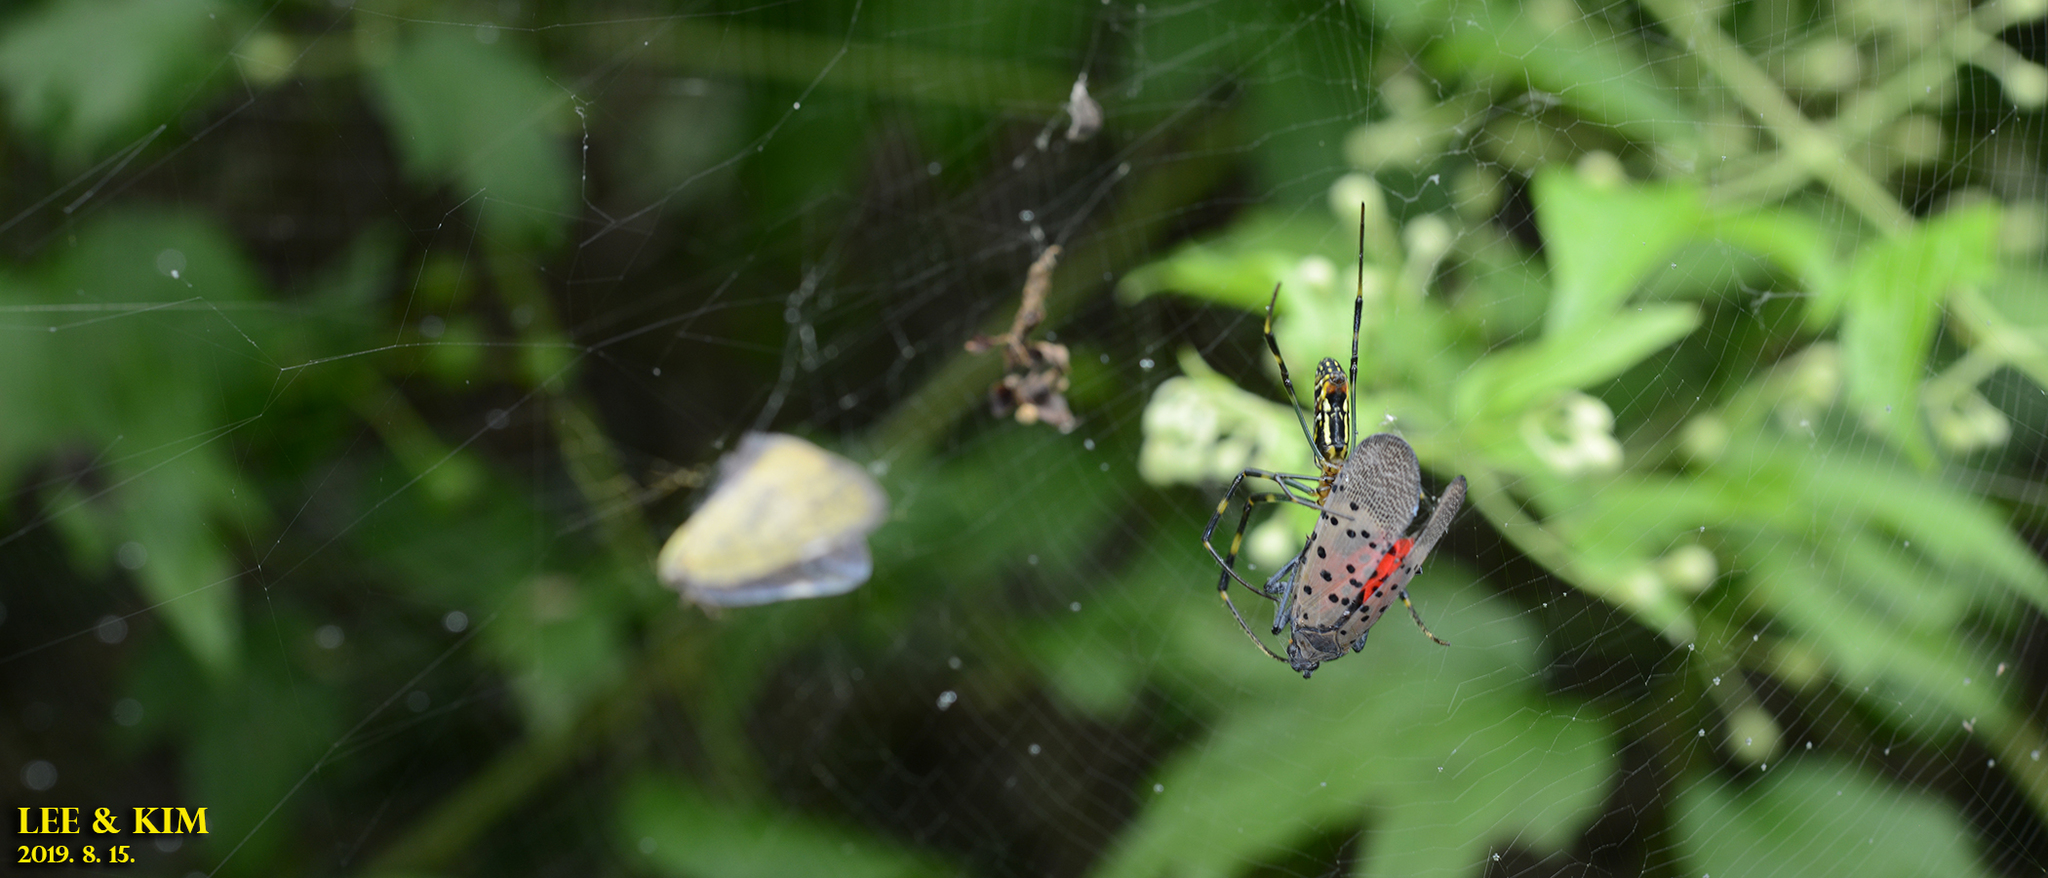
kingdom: Animalia
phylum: Arthropoda
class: Arachnida
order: Araneae
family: Araneidae
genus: Trichonephila
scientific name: Trichonephila clavata
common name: Jorō spider
